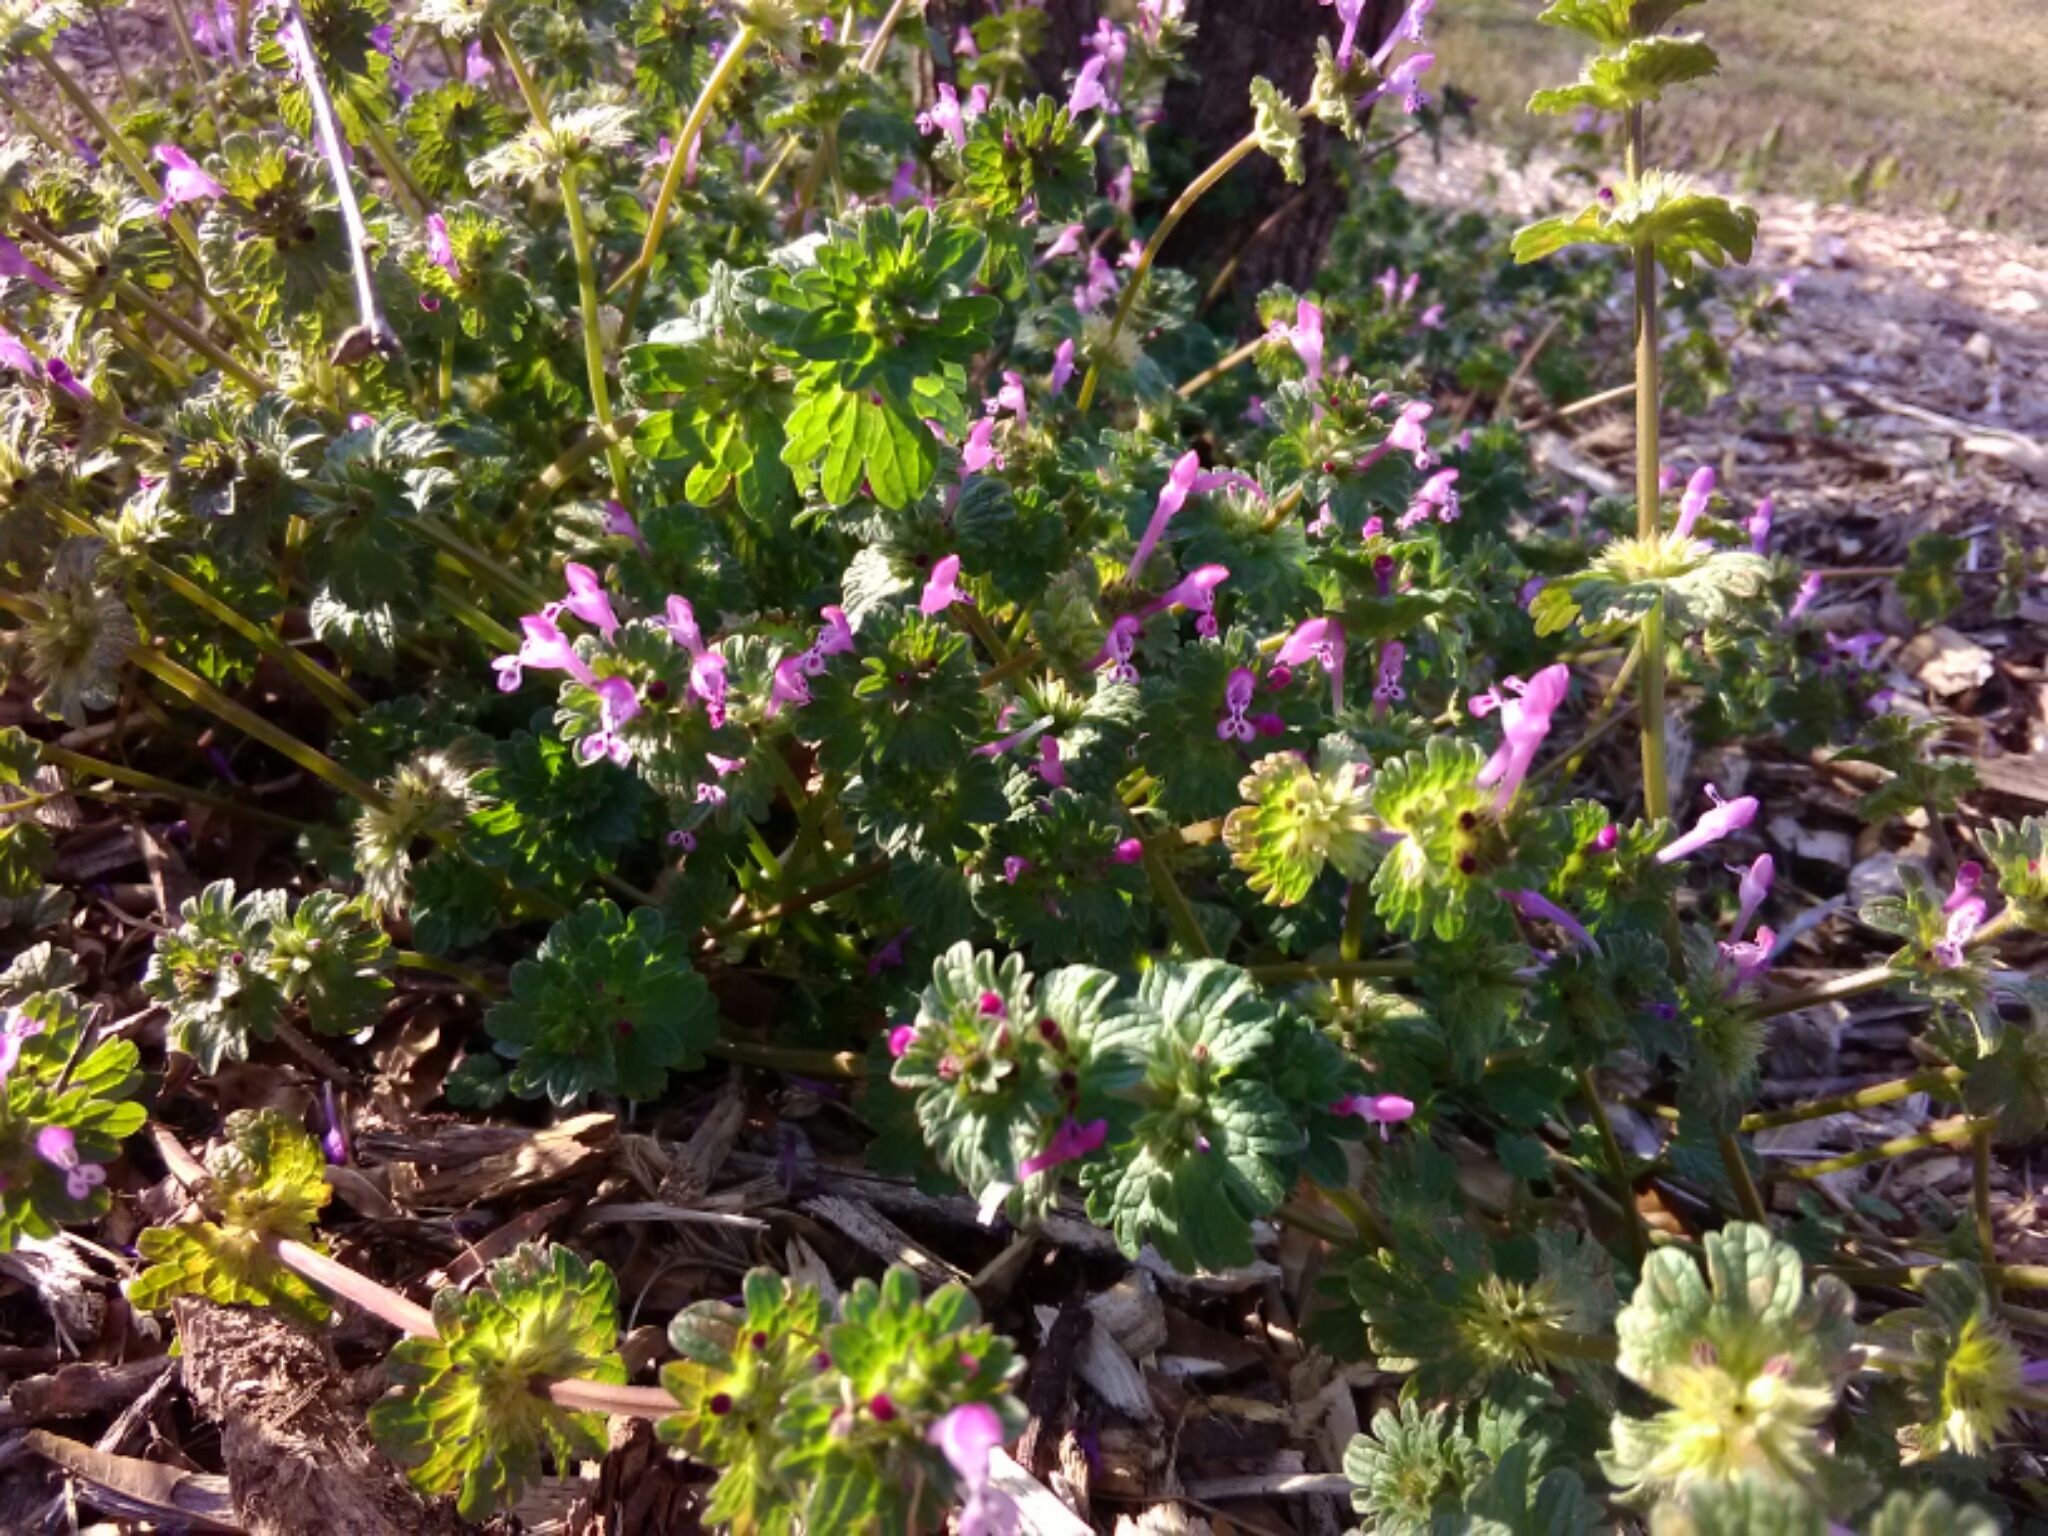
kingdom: Plantae
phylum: Tracheophyta
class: Magnoliopsida
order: Lamiales
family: Lamiaceae
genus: Lamium
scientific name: Lamium amplexicaule
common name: Henbit dead-nettle
